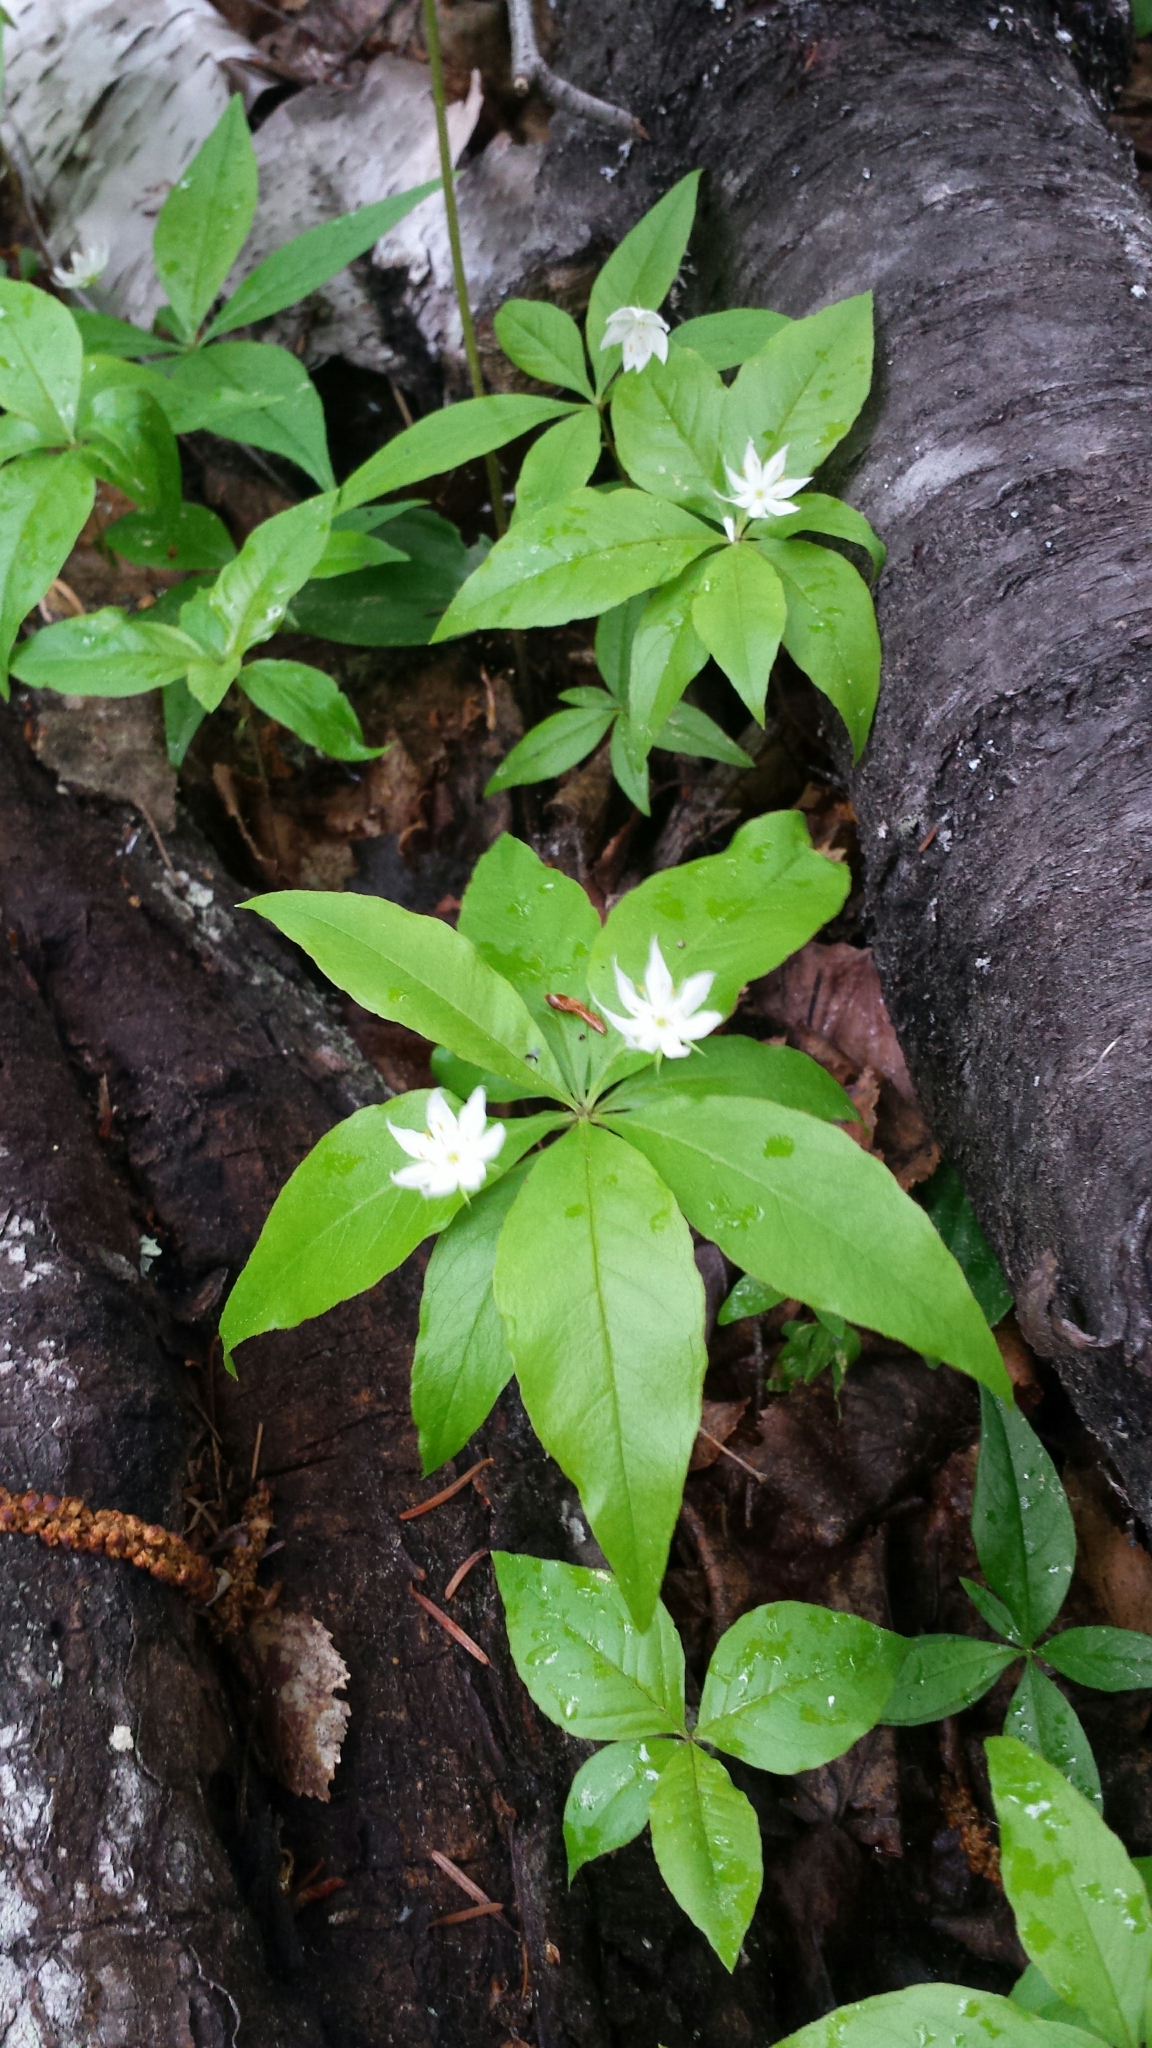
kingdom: Plantae
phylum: Tracheophyta
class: Magnoliopsida
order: Ericales
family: Primulaceae
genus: Lysimachia
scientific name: Lysimachia borealis
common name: American starflower
